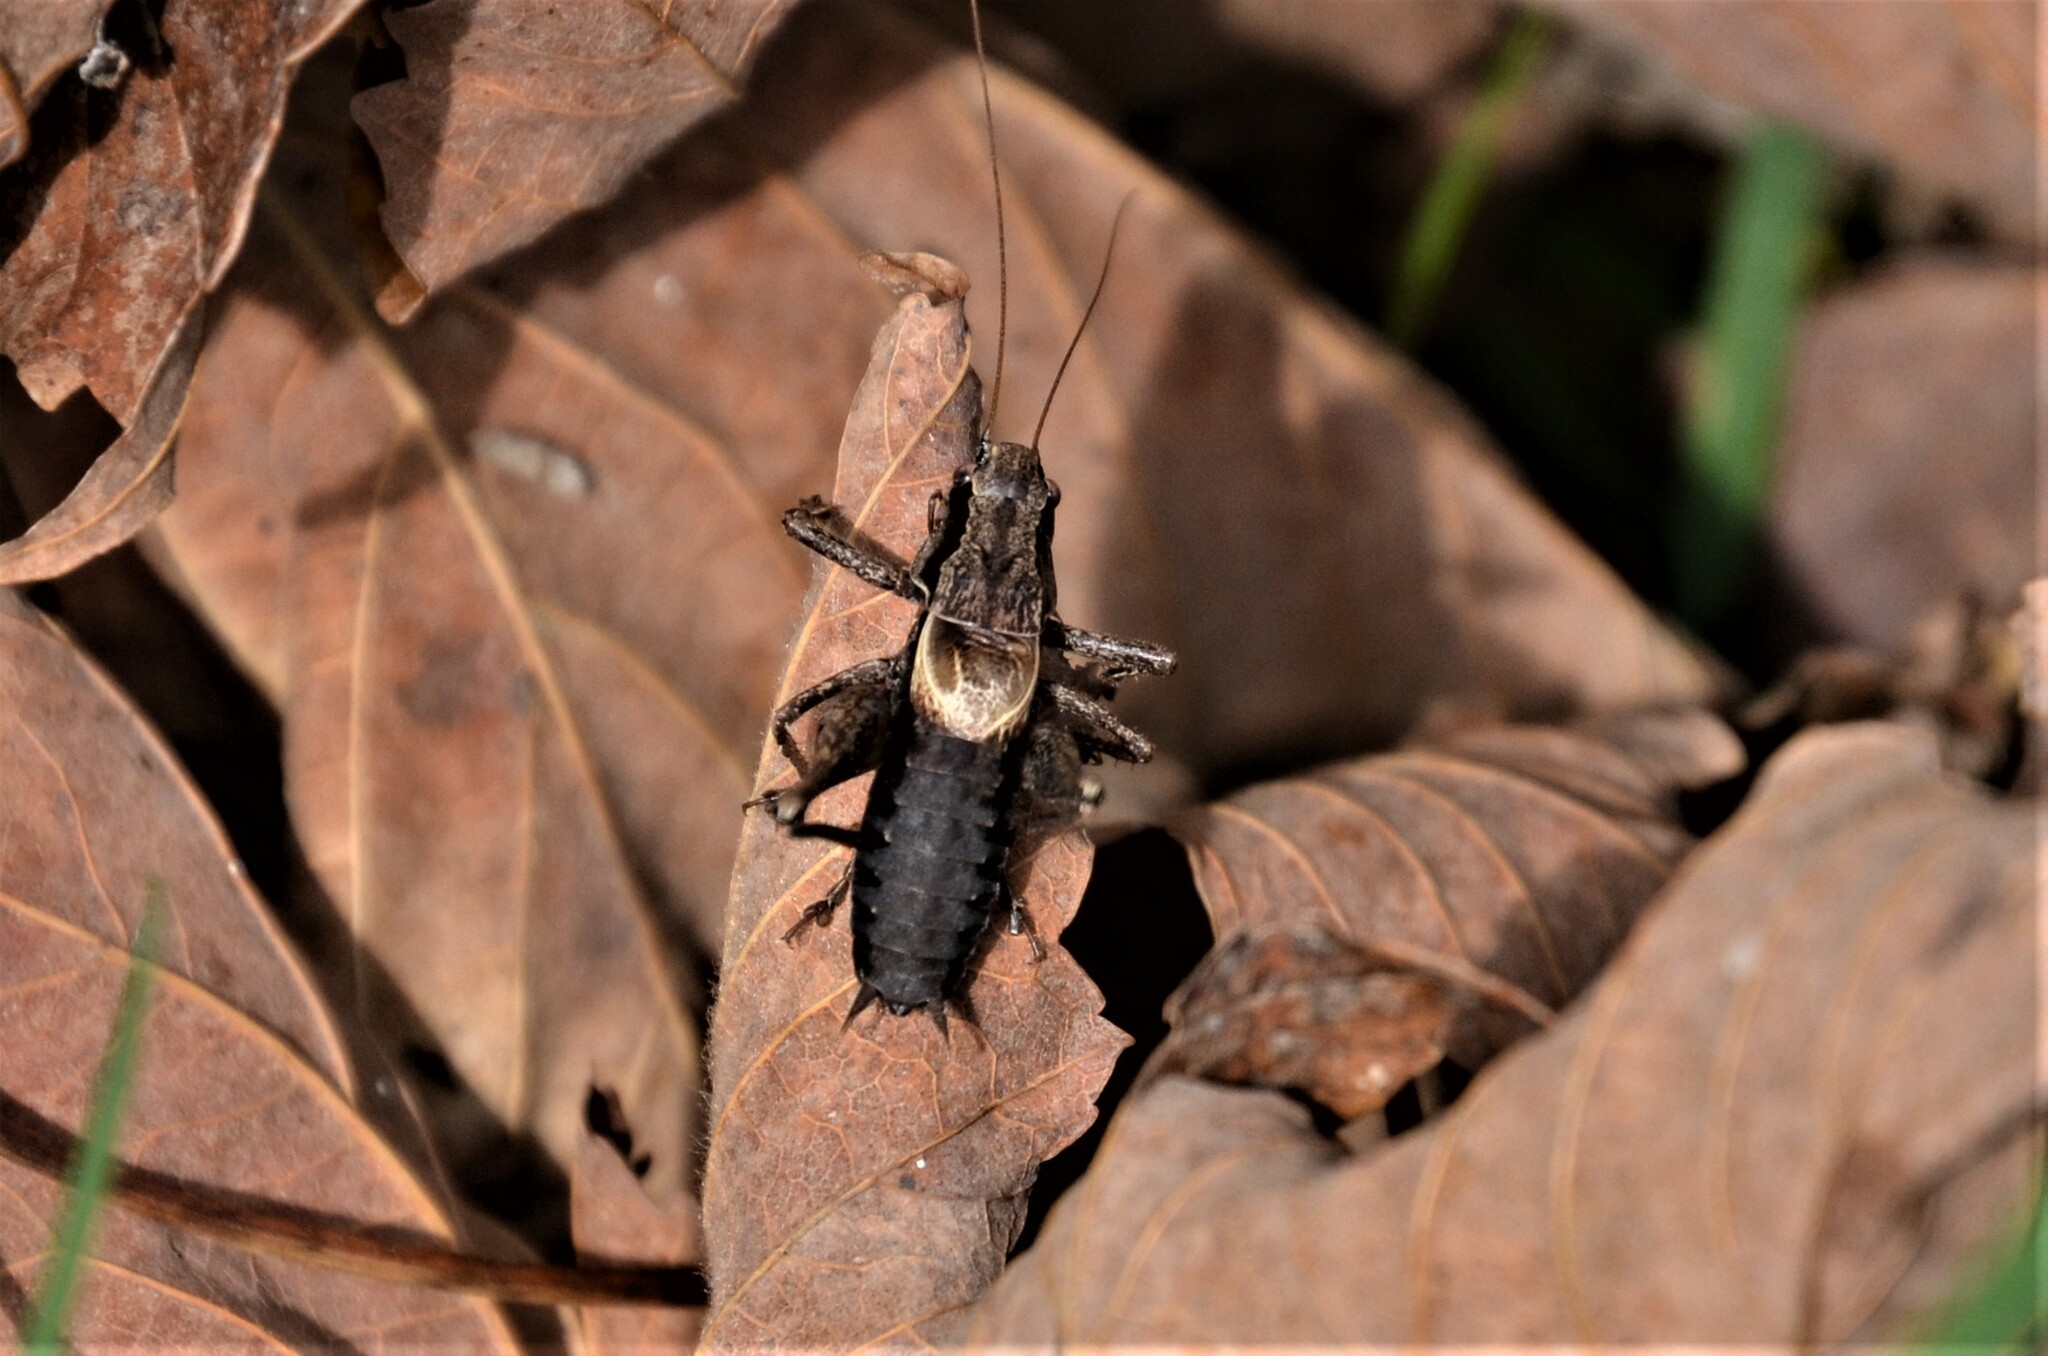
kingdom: Animalia
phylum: Arthropoda
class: Insecta
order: Orthoptera
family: Tettigoniidae
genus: Pholidoptera
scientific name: Pholidoptera griseoaptera
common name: Dark bush-cricket
